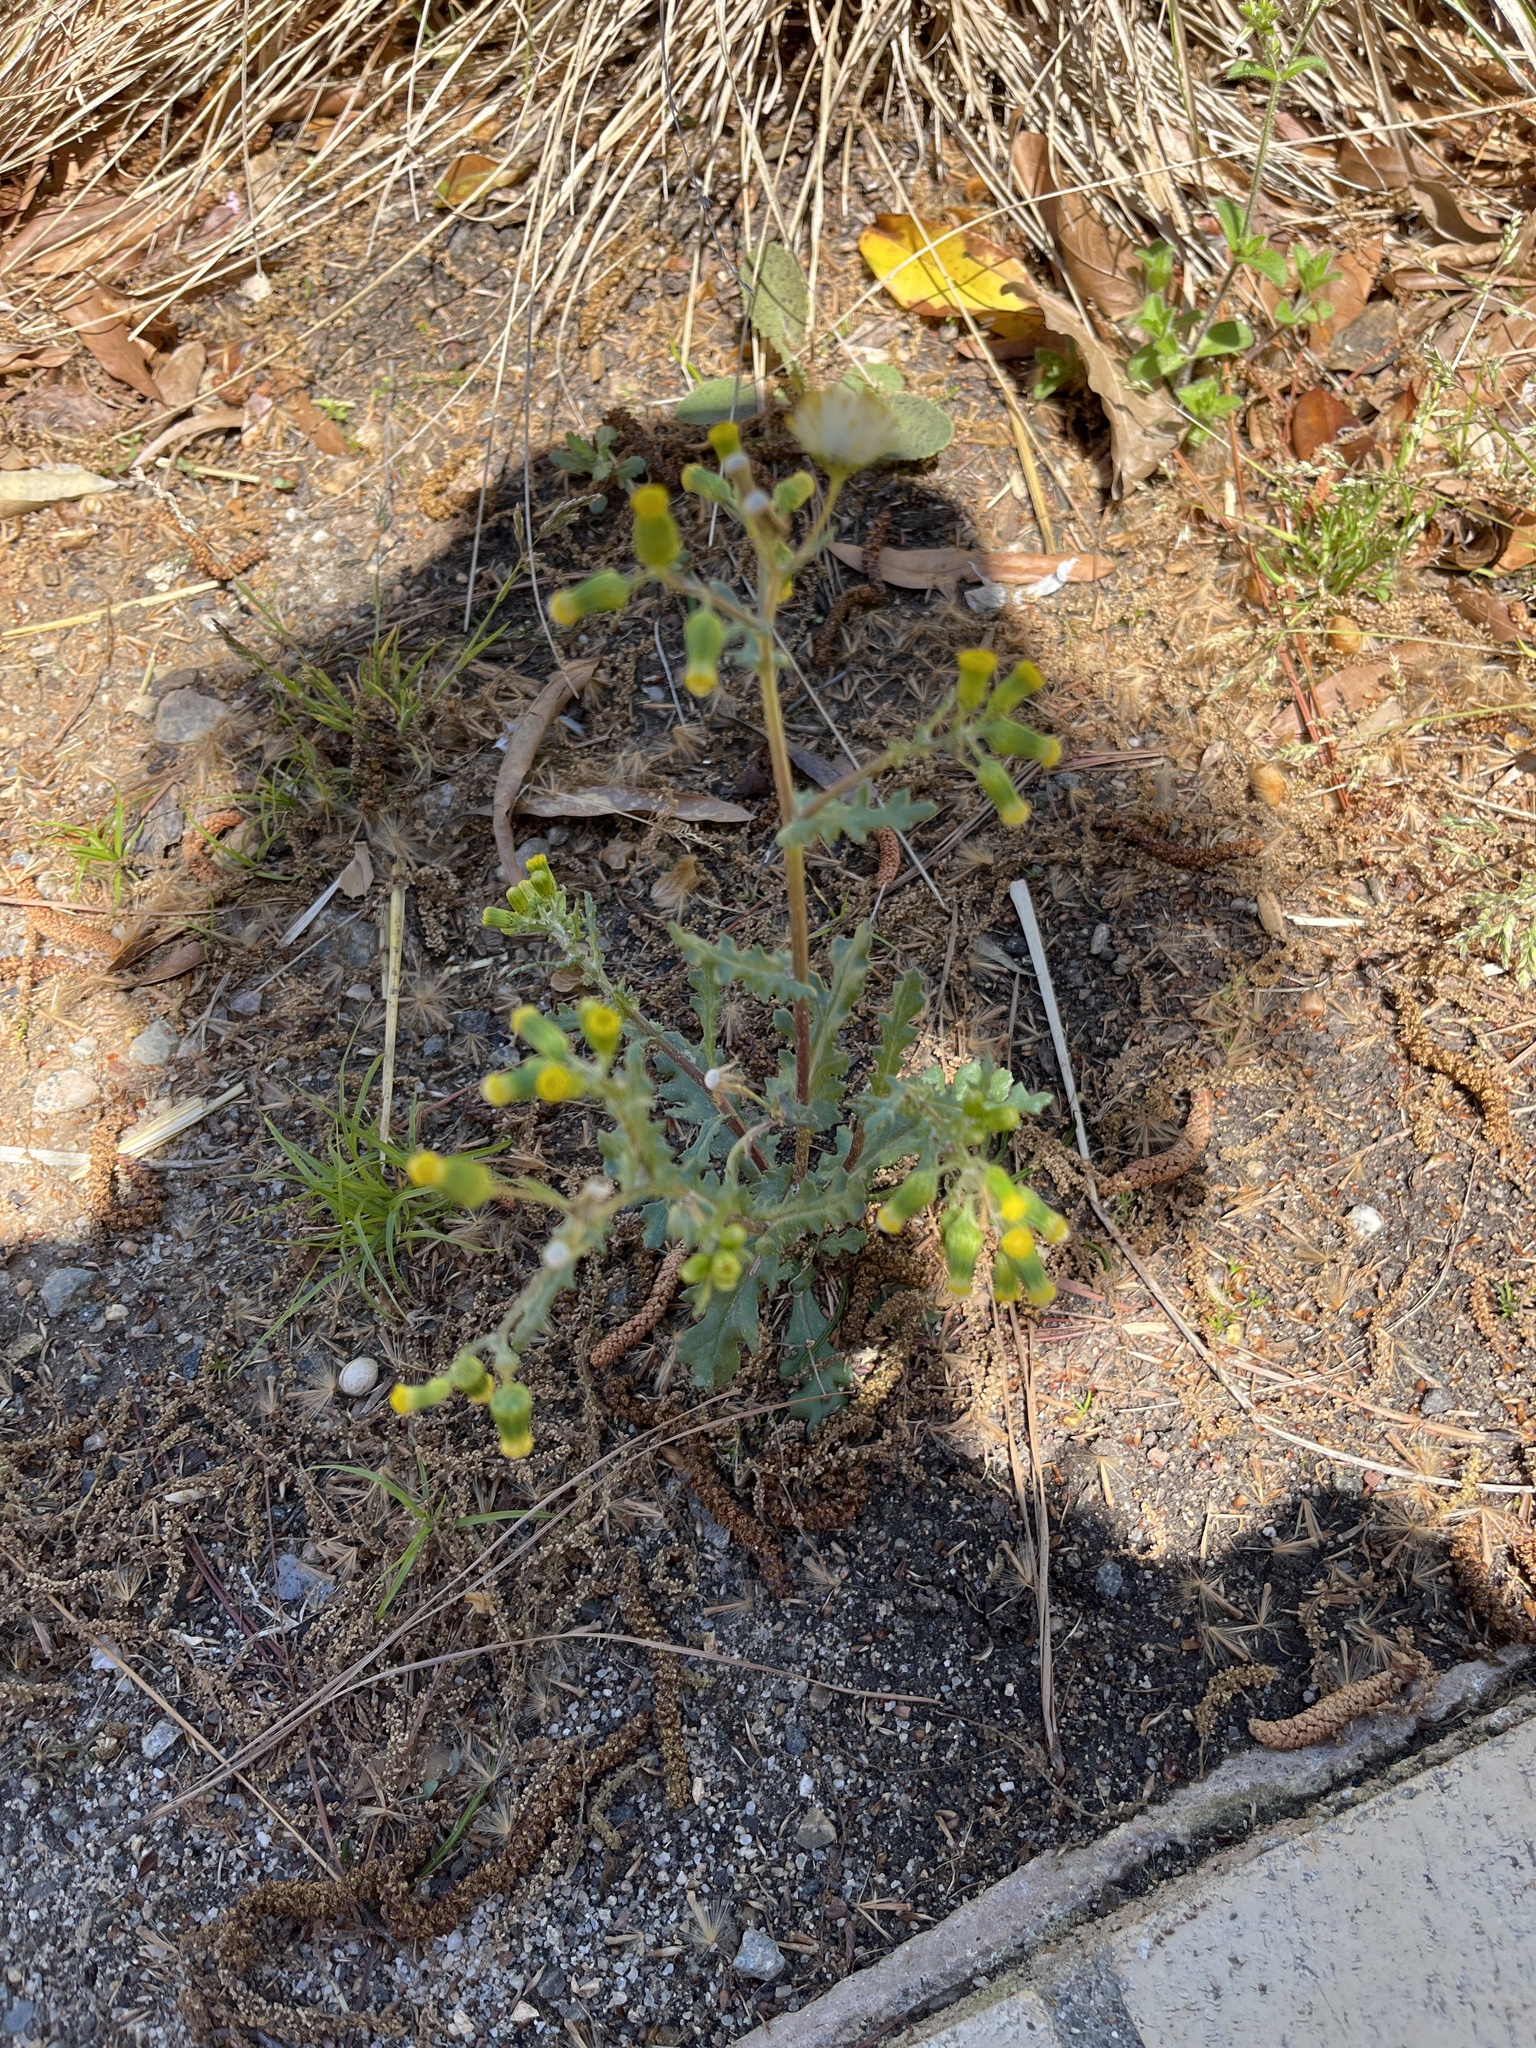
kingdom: Plantae
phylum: Tracheophyta
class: Magnoliopsida
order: Asterales
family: Asteraceae
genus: Senecio
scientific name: Senecio vulgaris
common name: Old-man-in-the-spring
